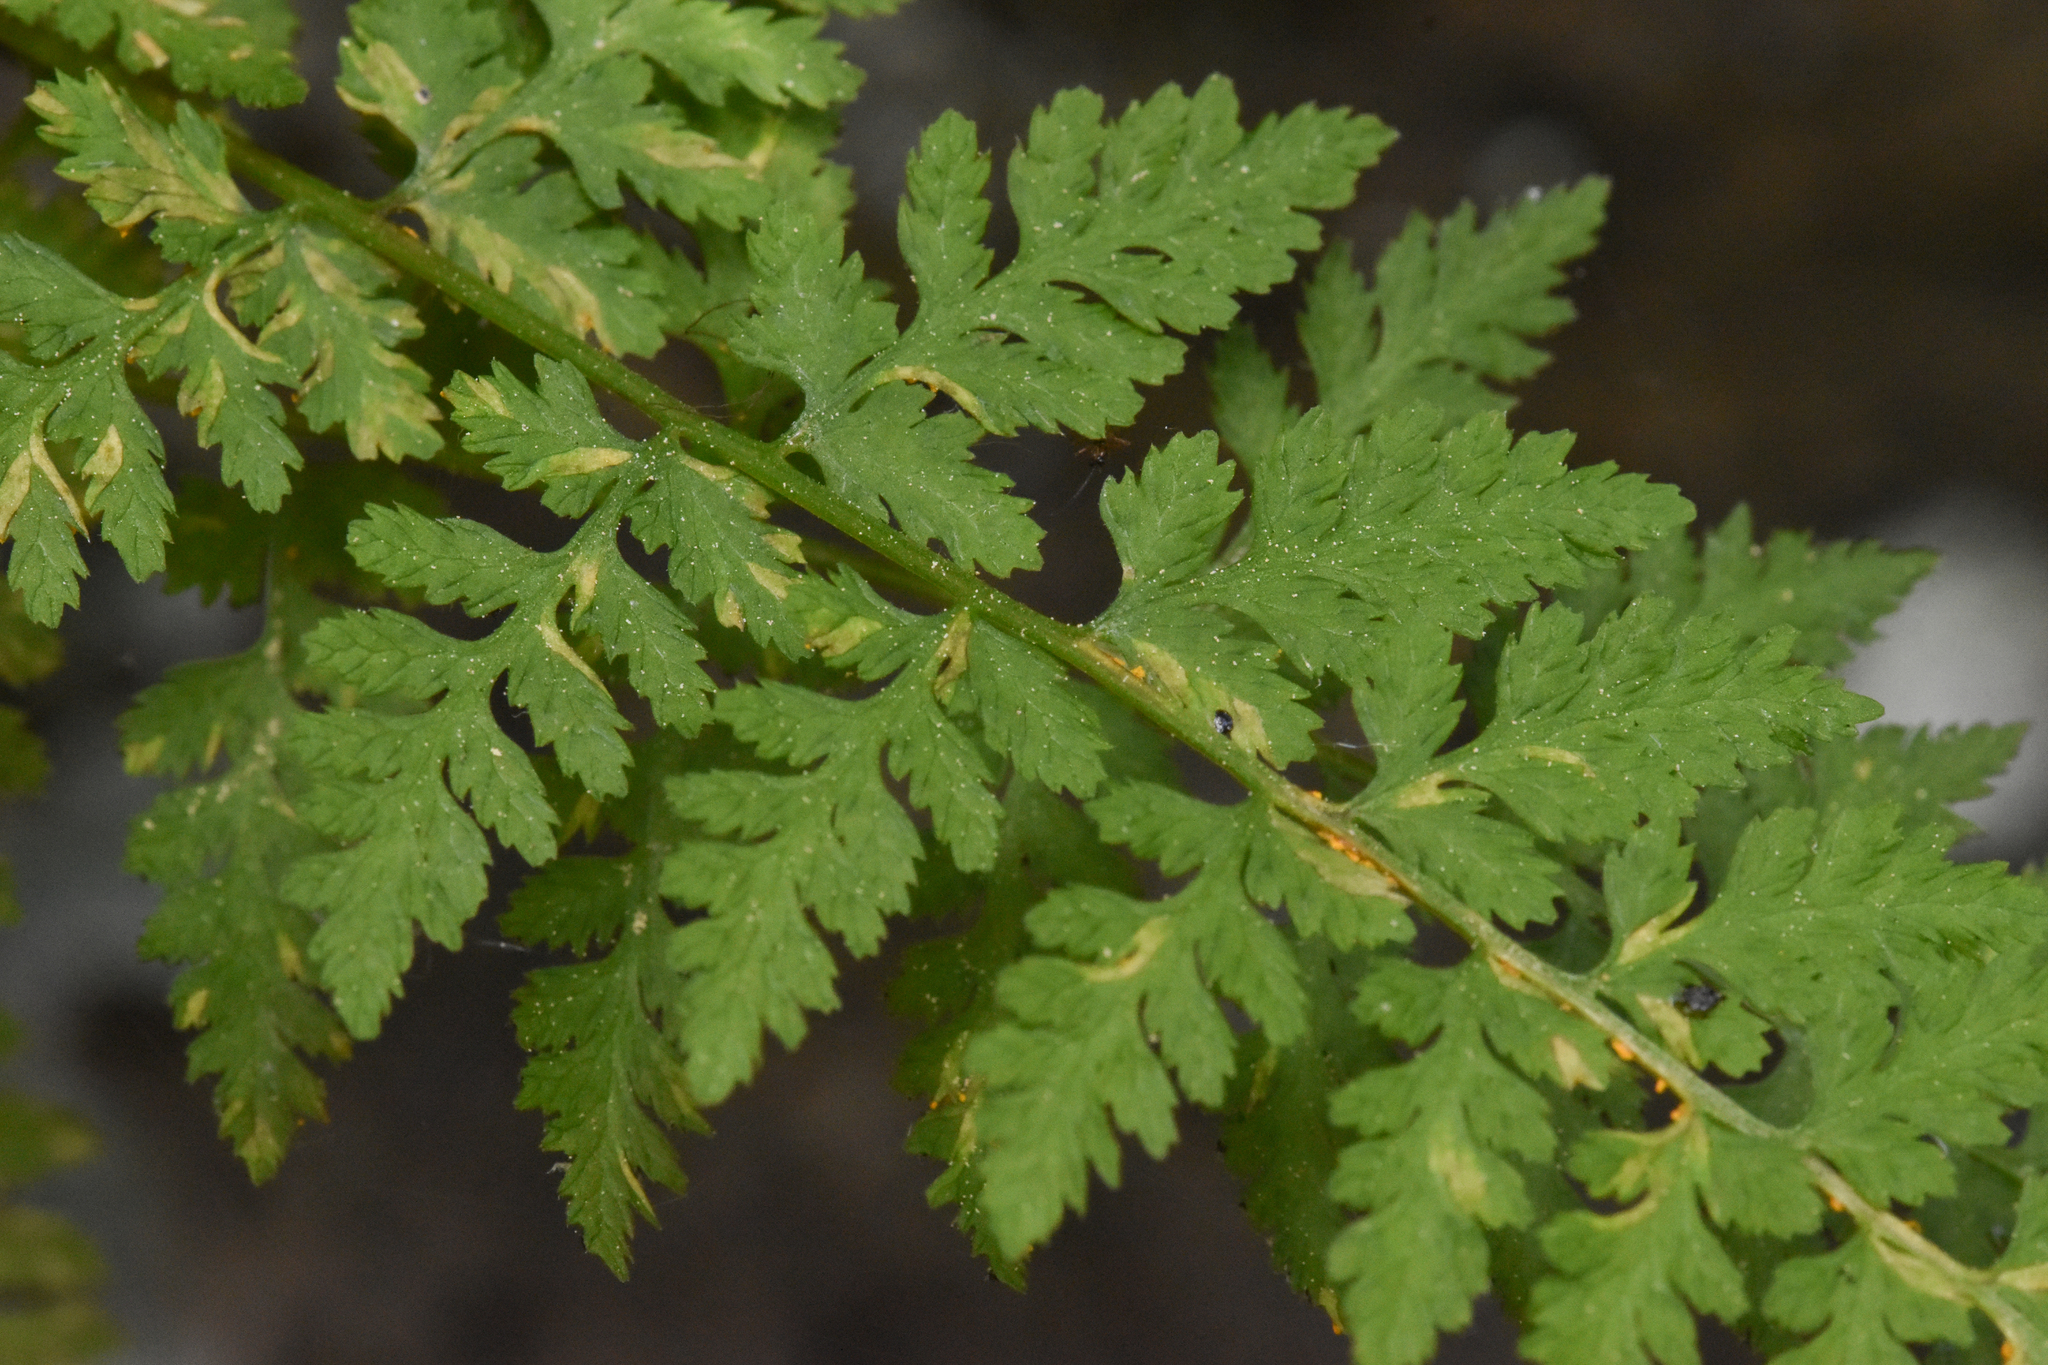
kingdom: Plantae
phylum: Tracheophyta
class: Polypodiopsida
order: Polypodiales
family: Cystopteridaceae
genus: Cystopteris
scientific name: Cystopteris fragilis
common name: Brittle bladder fern
